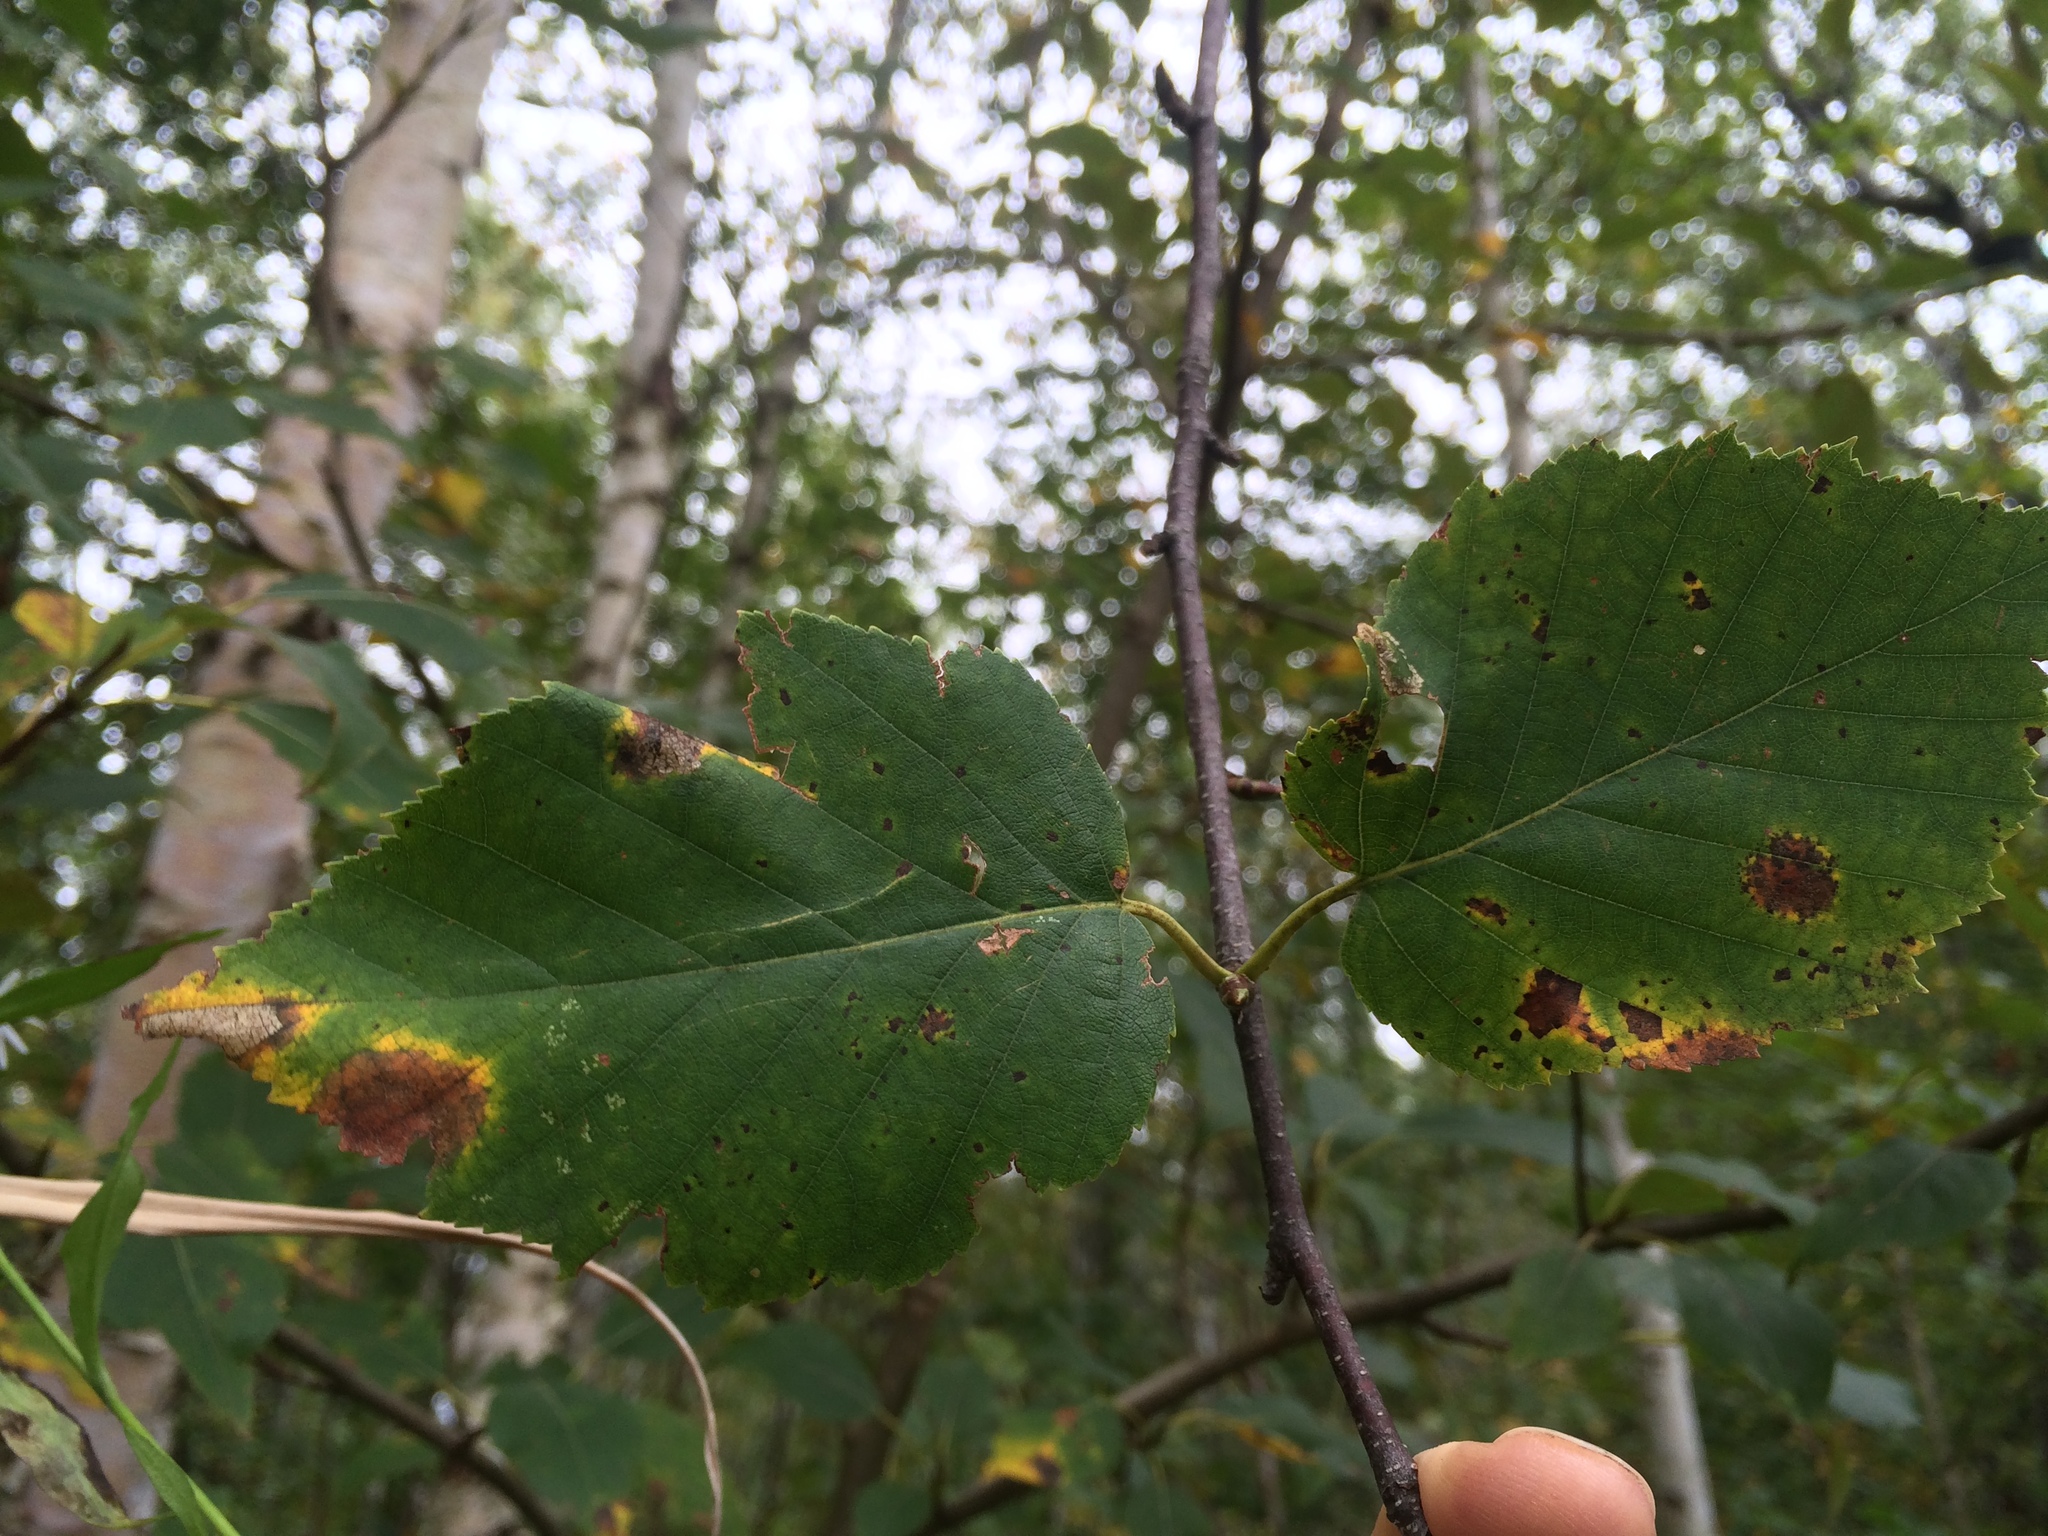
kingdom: Plantae
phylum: Tracheophyta
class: Magnoliopsida
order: Fagales
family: Betulaceae
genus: Betula
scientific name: Betula papyrifera
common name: Paper birch
